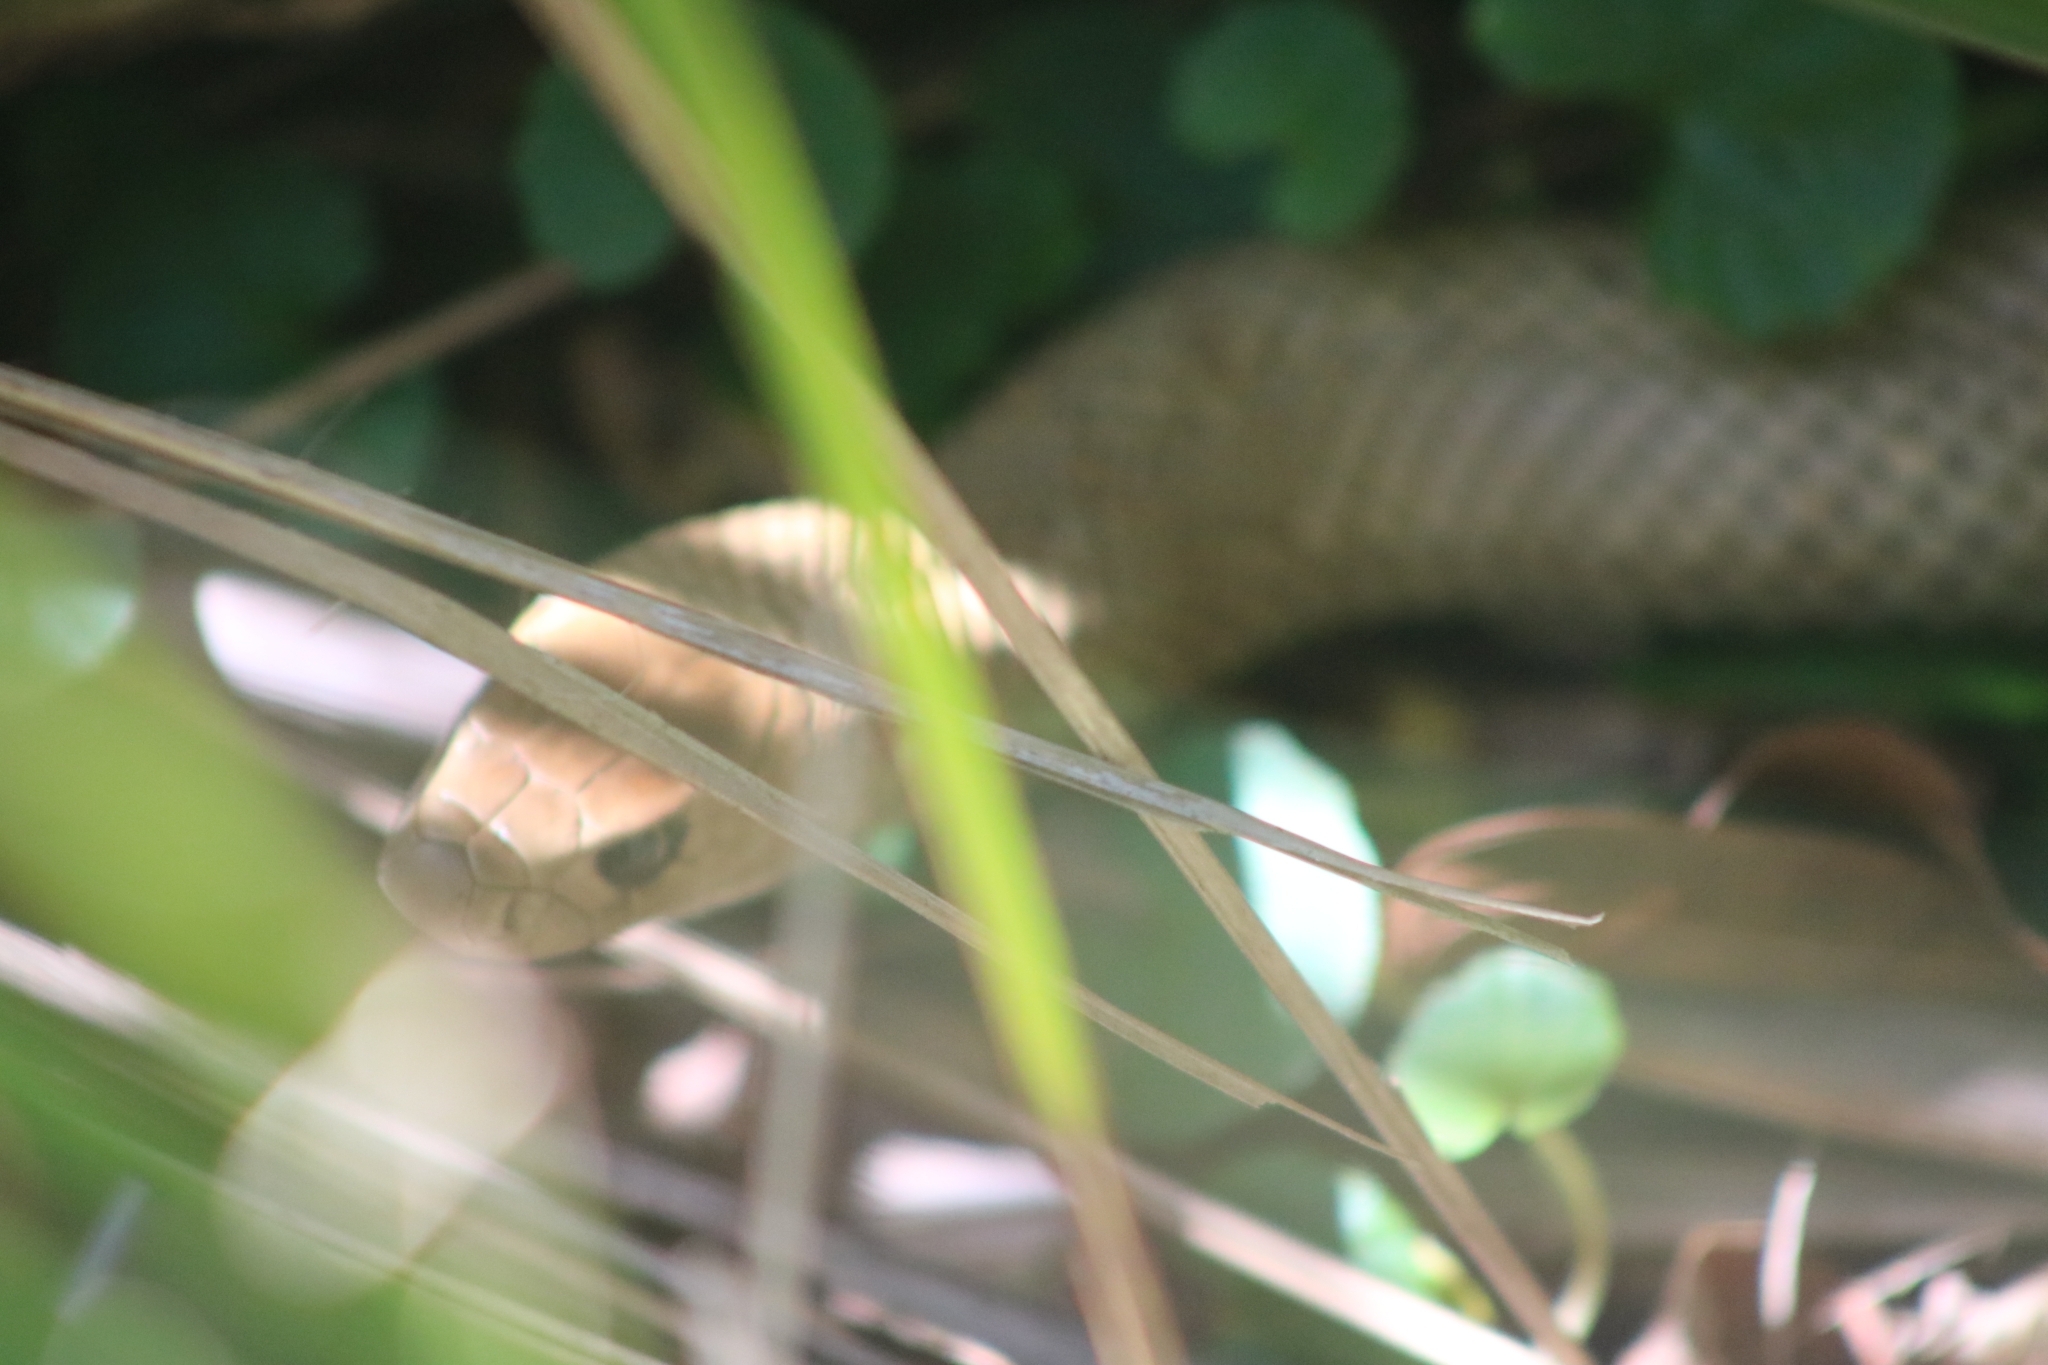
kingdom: Animalia
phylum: Chordata
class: Squamata
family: Elapidae
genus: Pseudonaja
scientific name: Pseudonaja textilis
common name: Eastern brown snake
